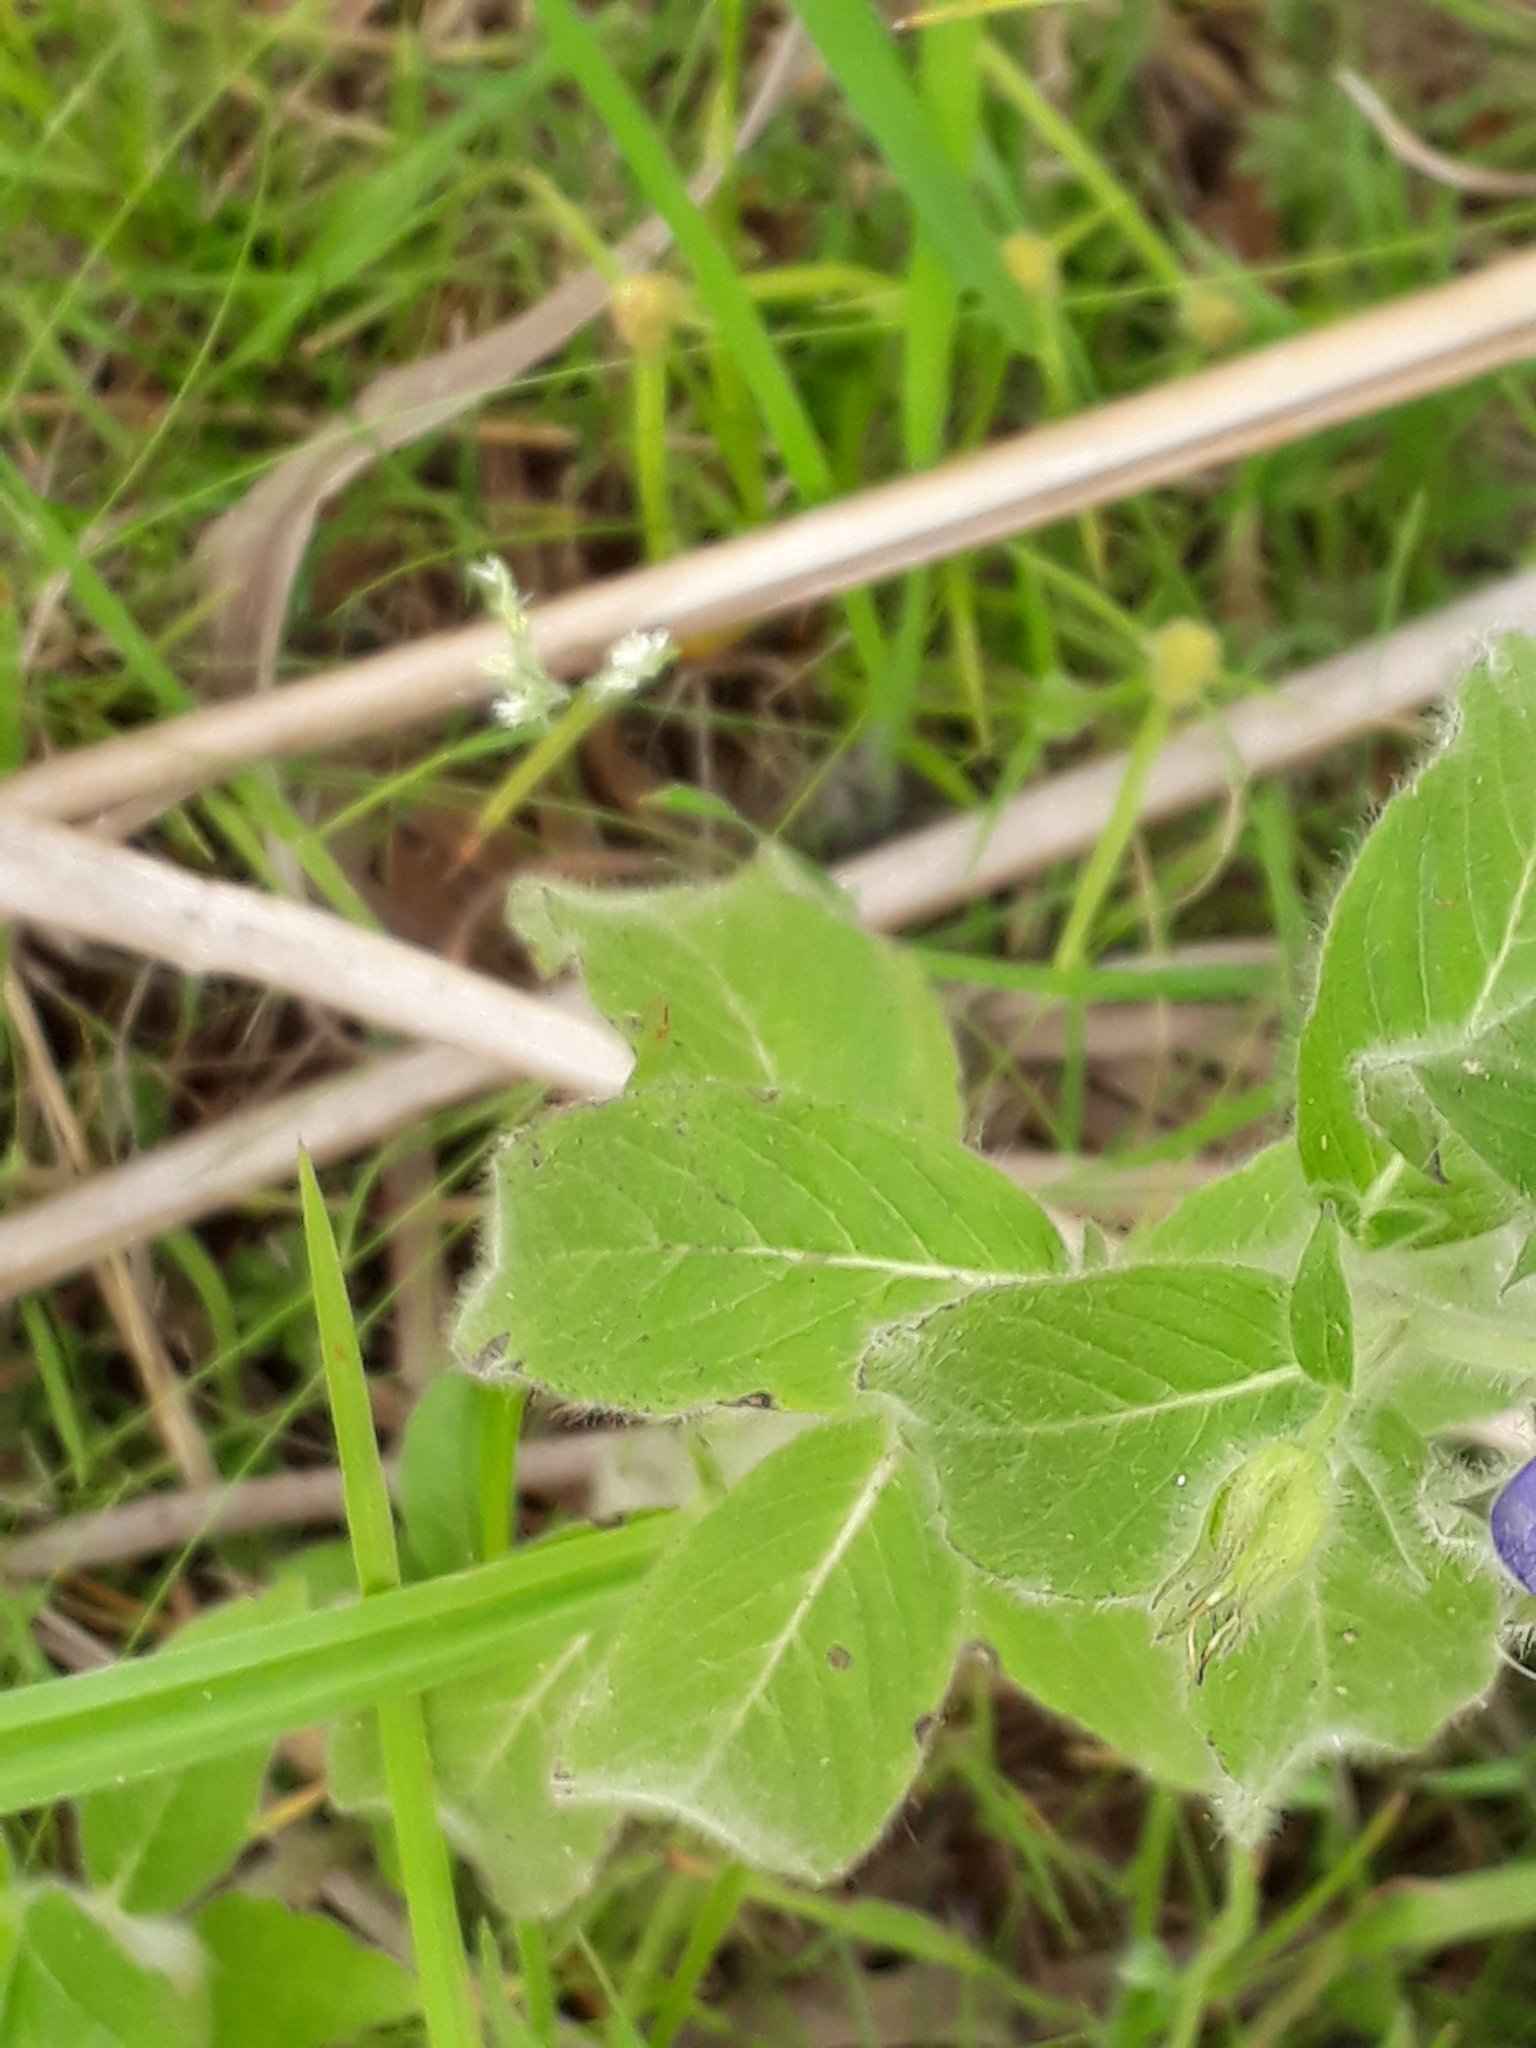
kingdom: Plantae
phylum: Tracheophyta
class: Magnoliopsida
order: Solanales
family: Hydroleaceae
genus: Hydrolea
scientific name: Hydrolea spinosa
